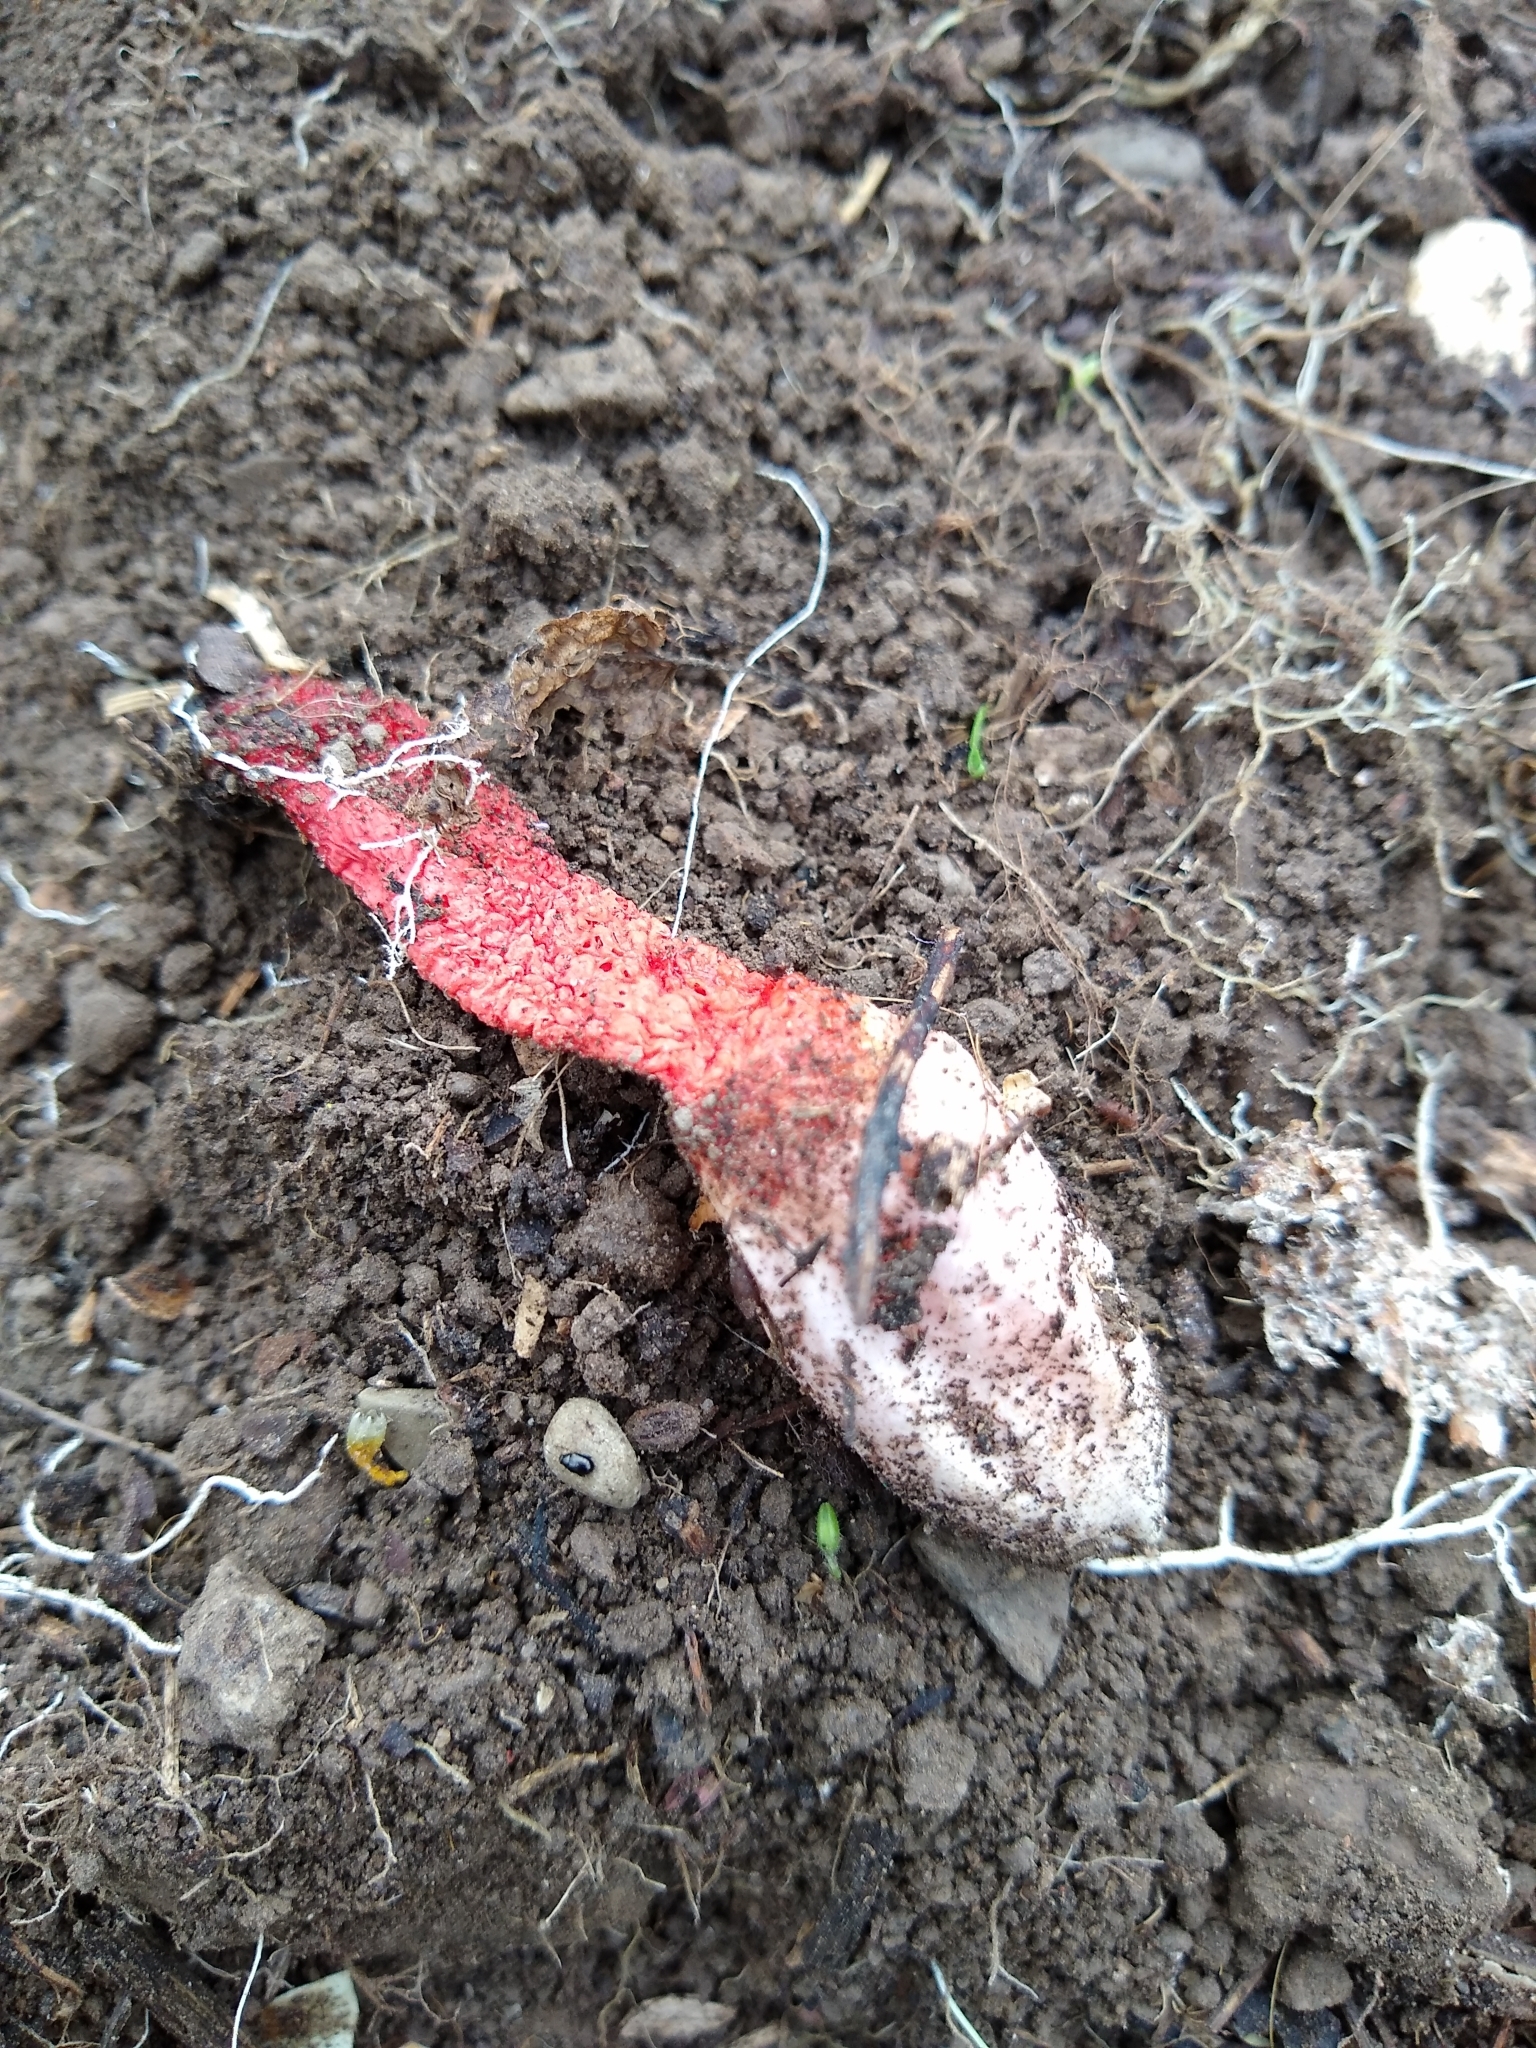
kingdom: Fungi
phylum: Basidiomycota
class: Agaricomycetes
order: Phallales
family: Phallaceae
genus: Mutinus
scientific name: Mutinus elegans
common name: Devil's dipstick
